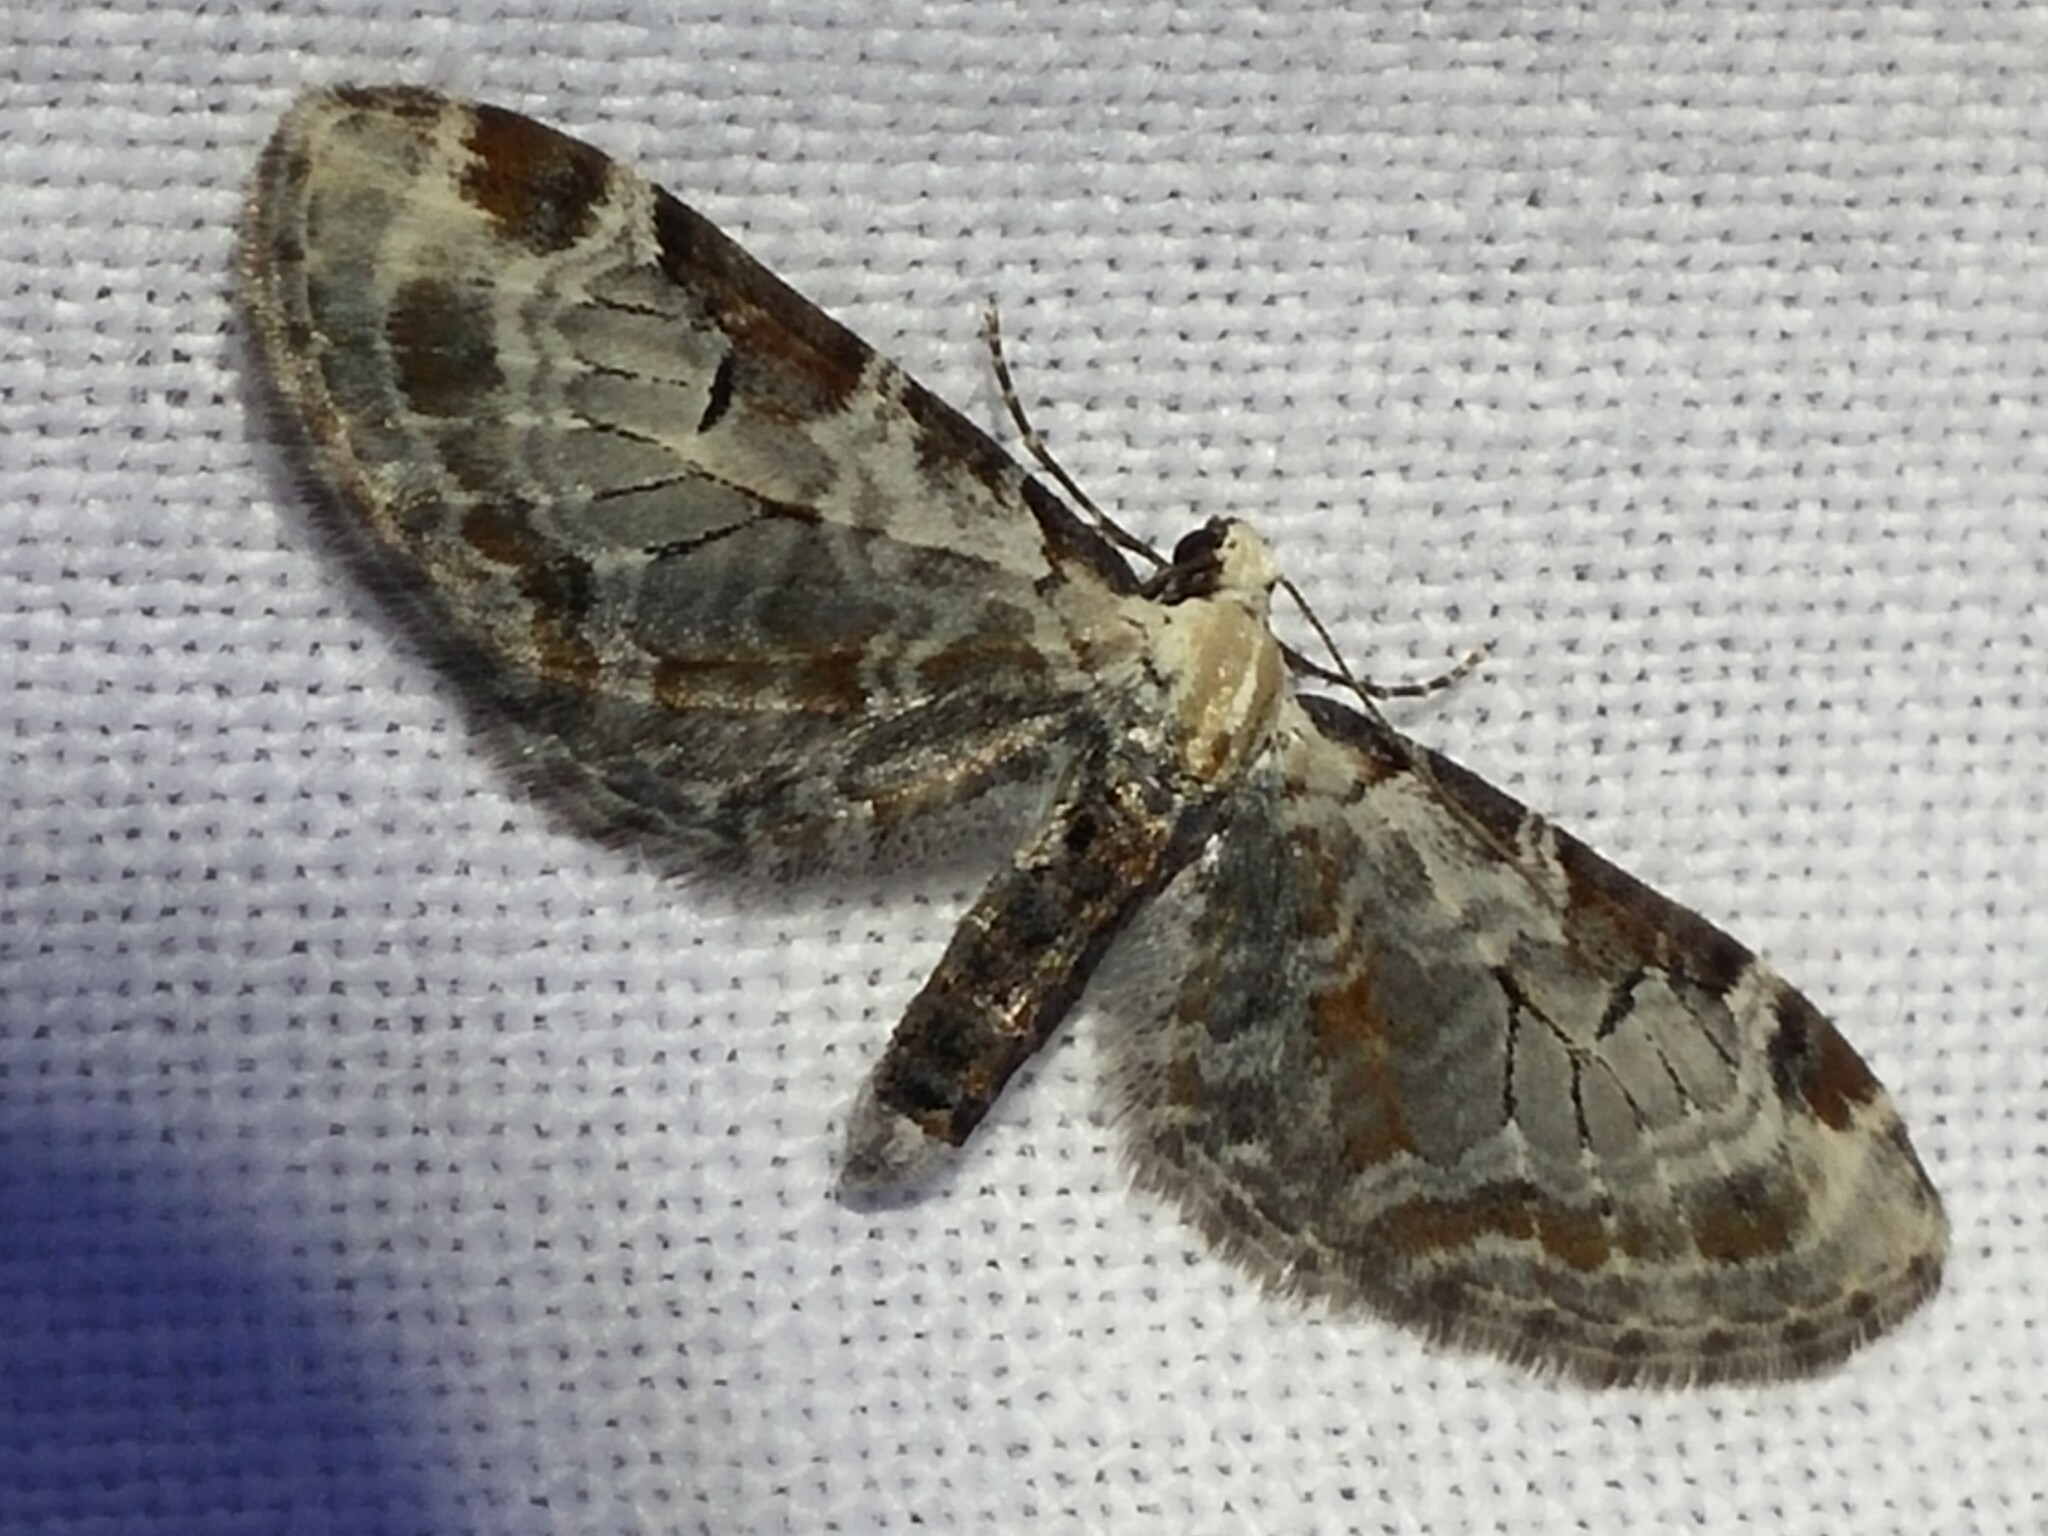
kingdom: Animalia
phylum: Arthropoda
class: Insecta
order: Lepidoptera
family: Geometridae
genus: Eupithecia
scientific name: Eupithecia ravocostaliata
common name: Great varigated pug
